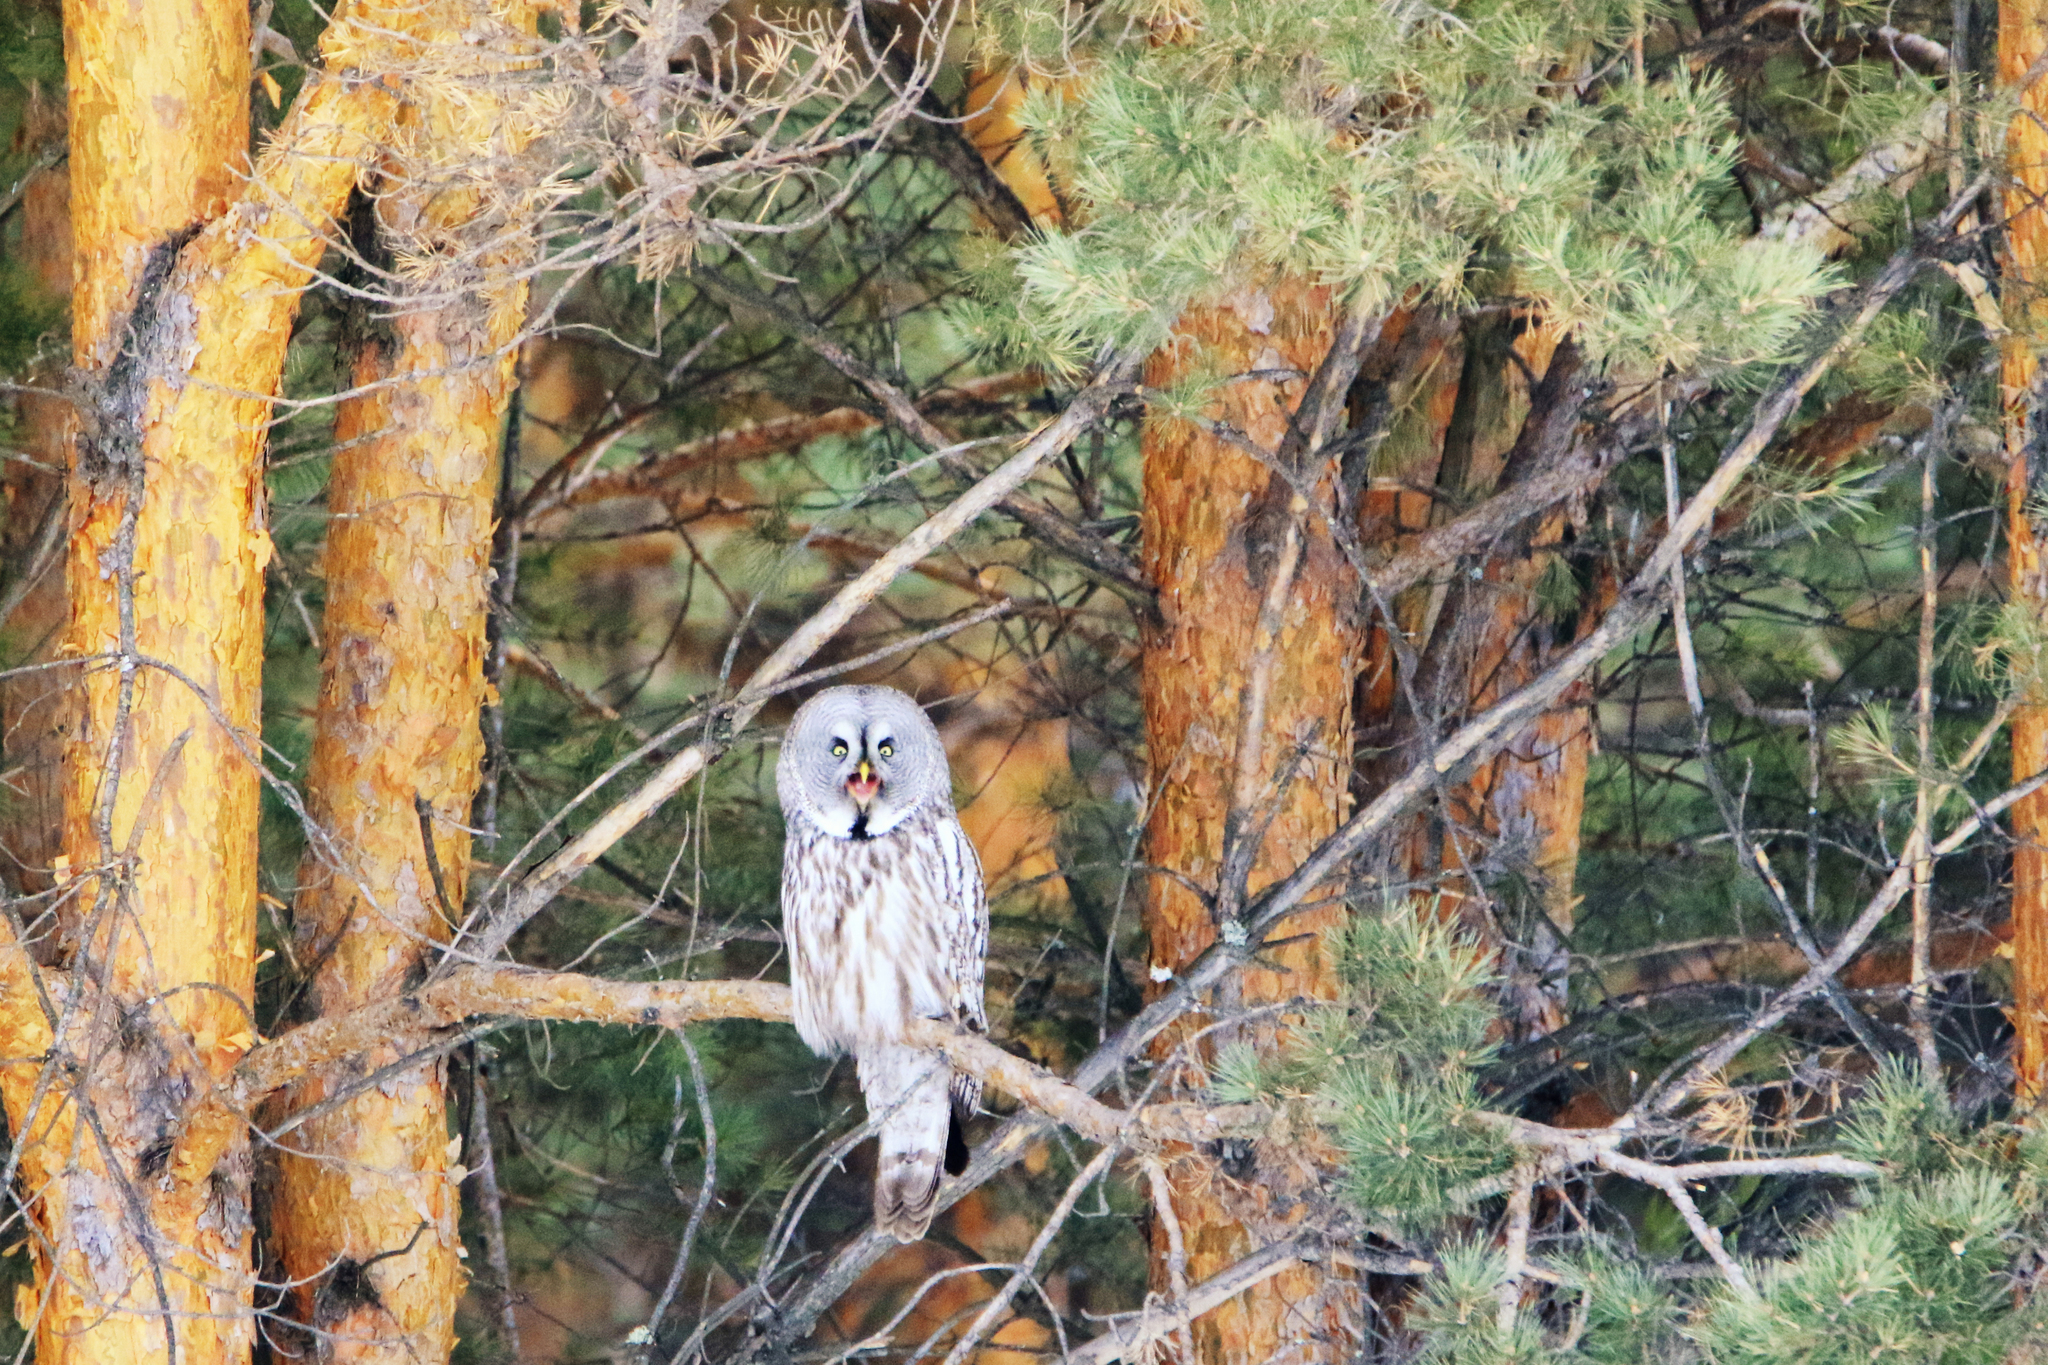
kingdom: Animalia
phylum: Chordata
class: Aves
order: Strigiformes
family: Strigidae
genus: Strix
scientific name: Strix nebulosa
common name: Great grey owl
